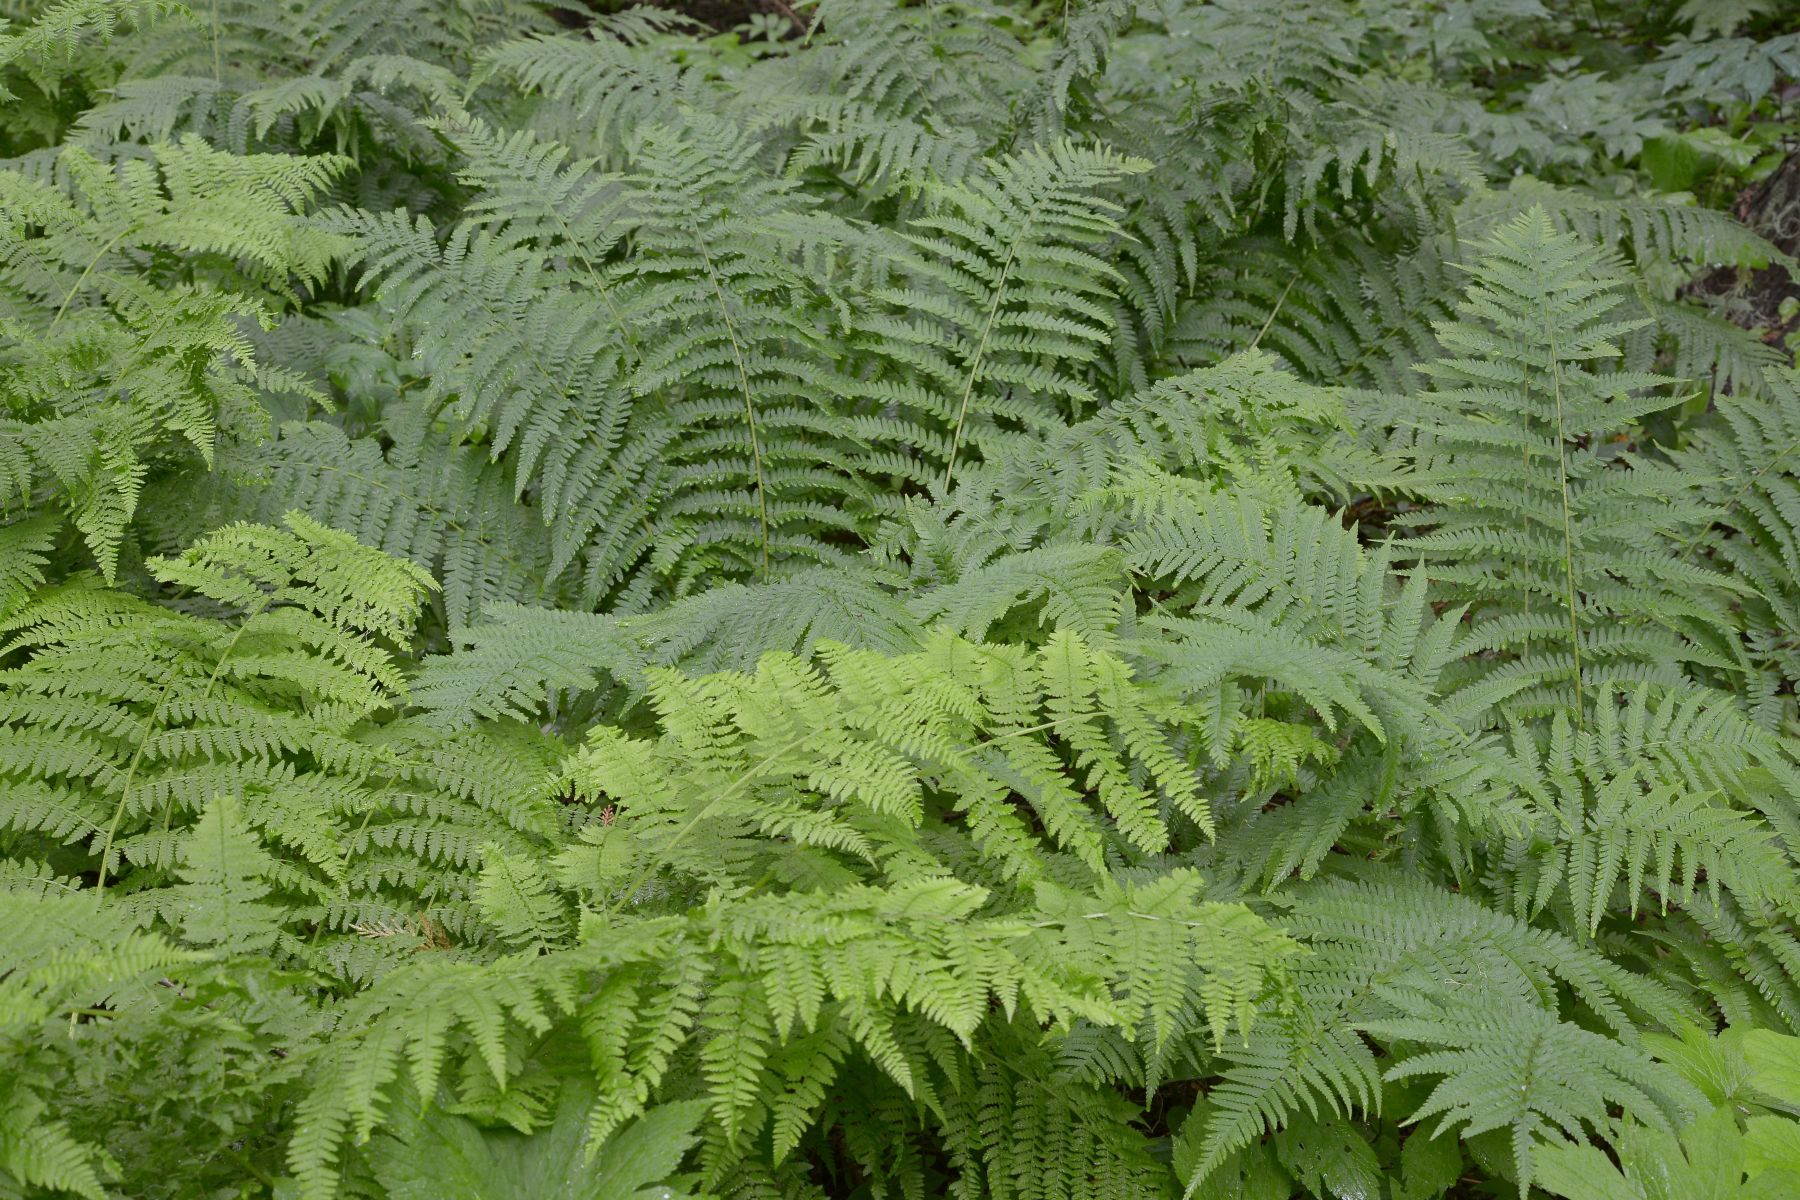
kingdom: Plantae
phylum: Tracheophyta
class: Polypodiopsida
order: Polypodiales
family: Dryopteridaceae
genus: Dryopteris
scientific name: Dryopteris filix-mas
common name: Male fern
